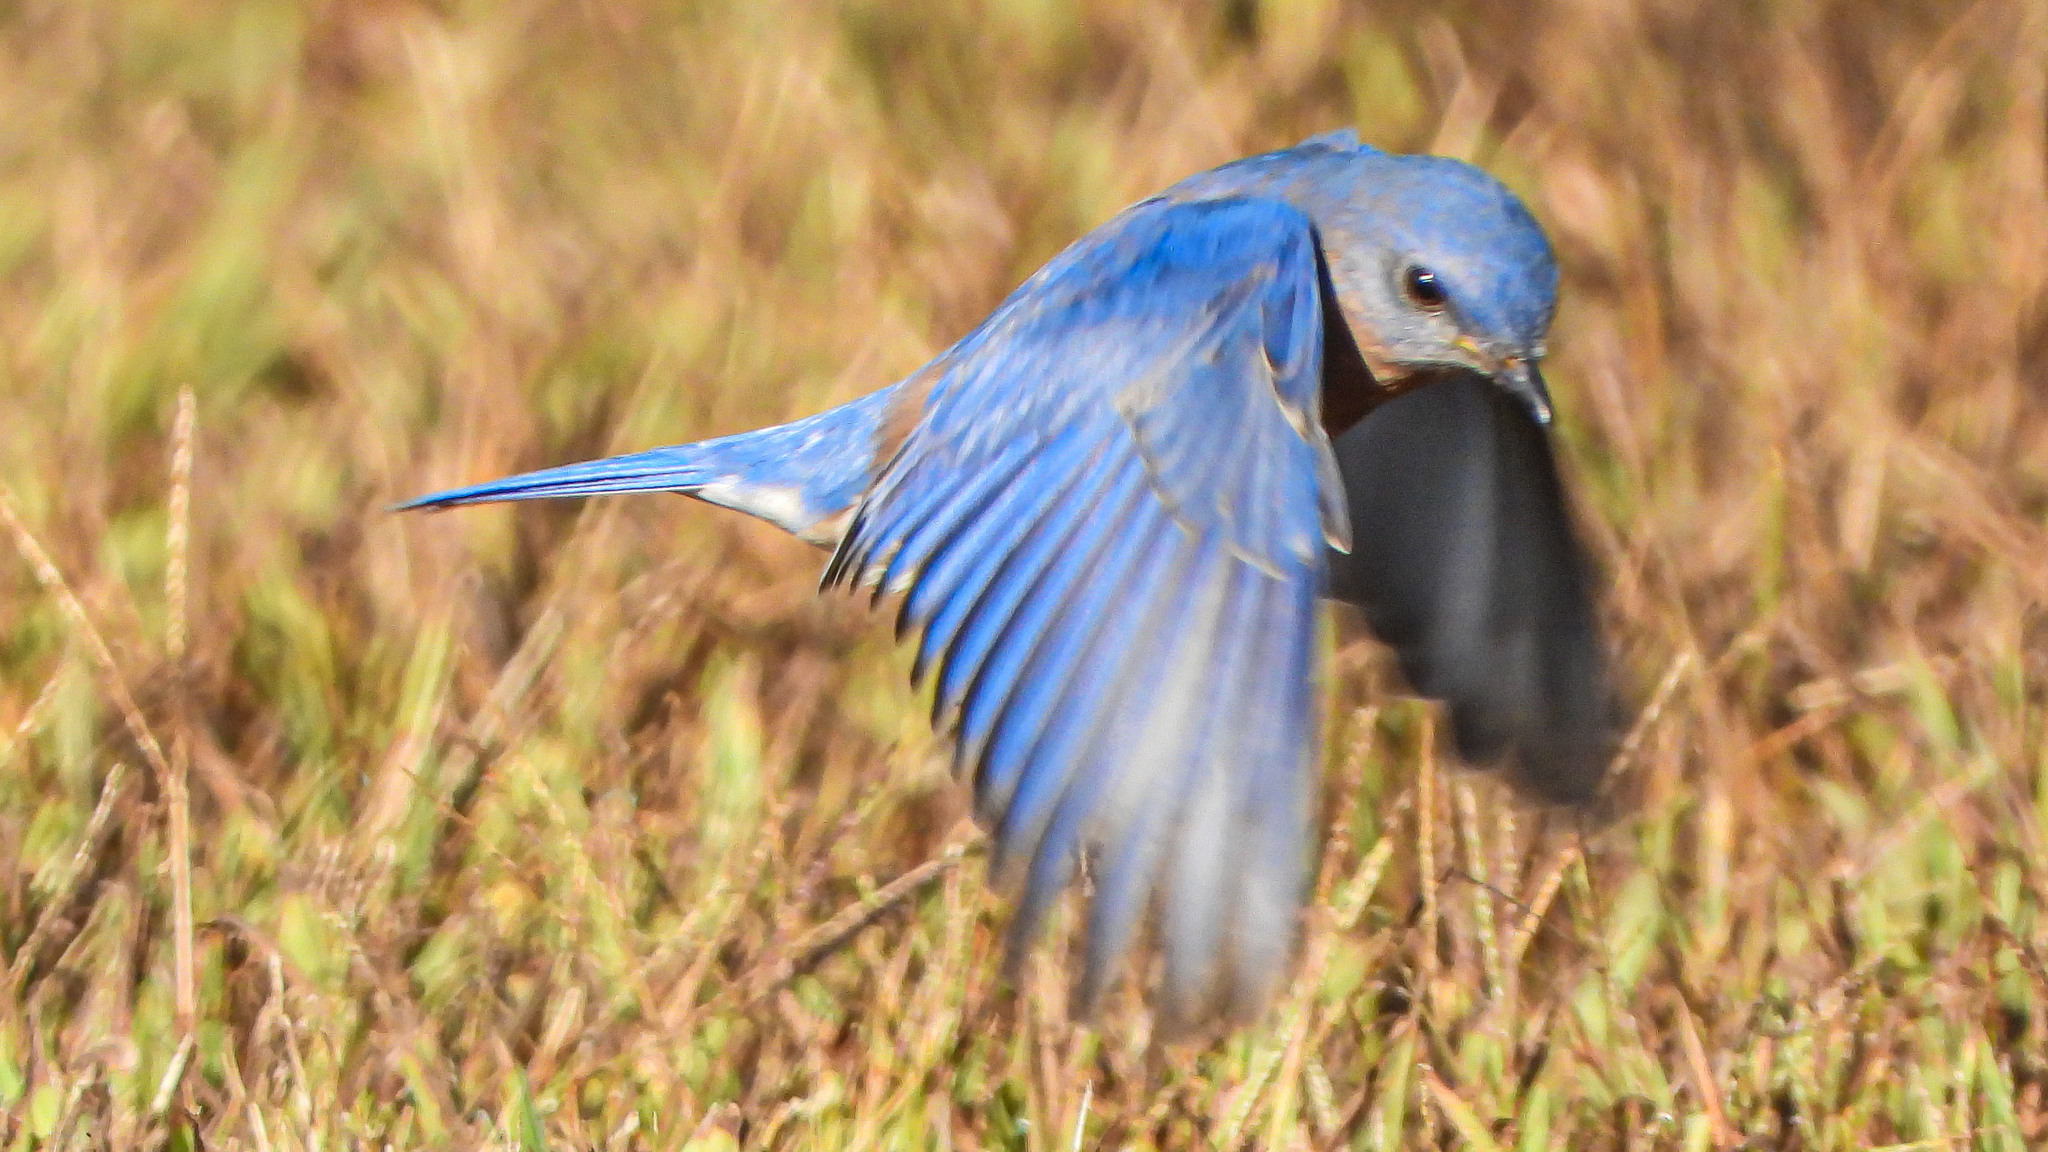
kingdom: Animalia
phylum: Chordata
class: Aves
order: Passeriformes
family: Turdidae
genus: Sialia
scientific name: Sialia sialis
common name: Eastern bluebird
